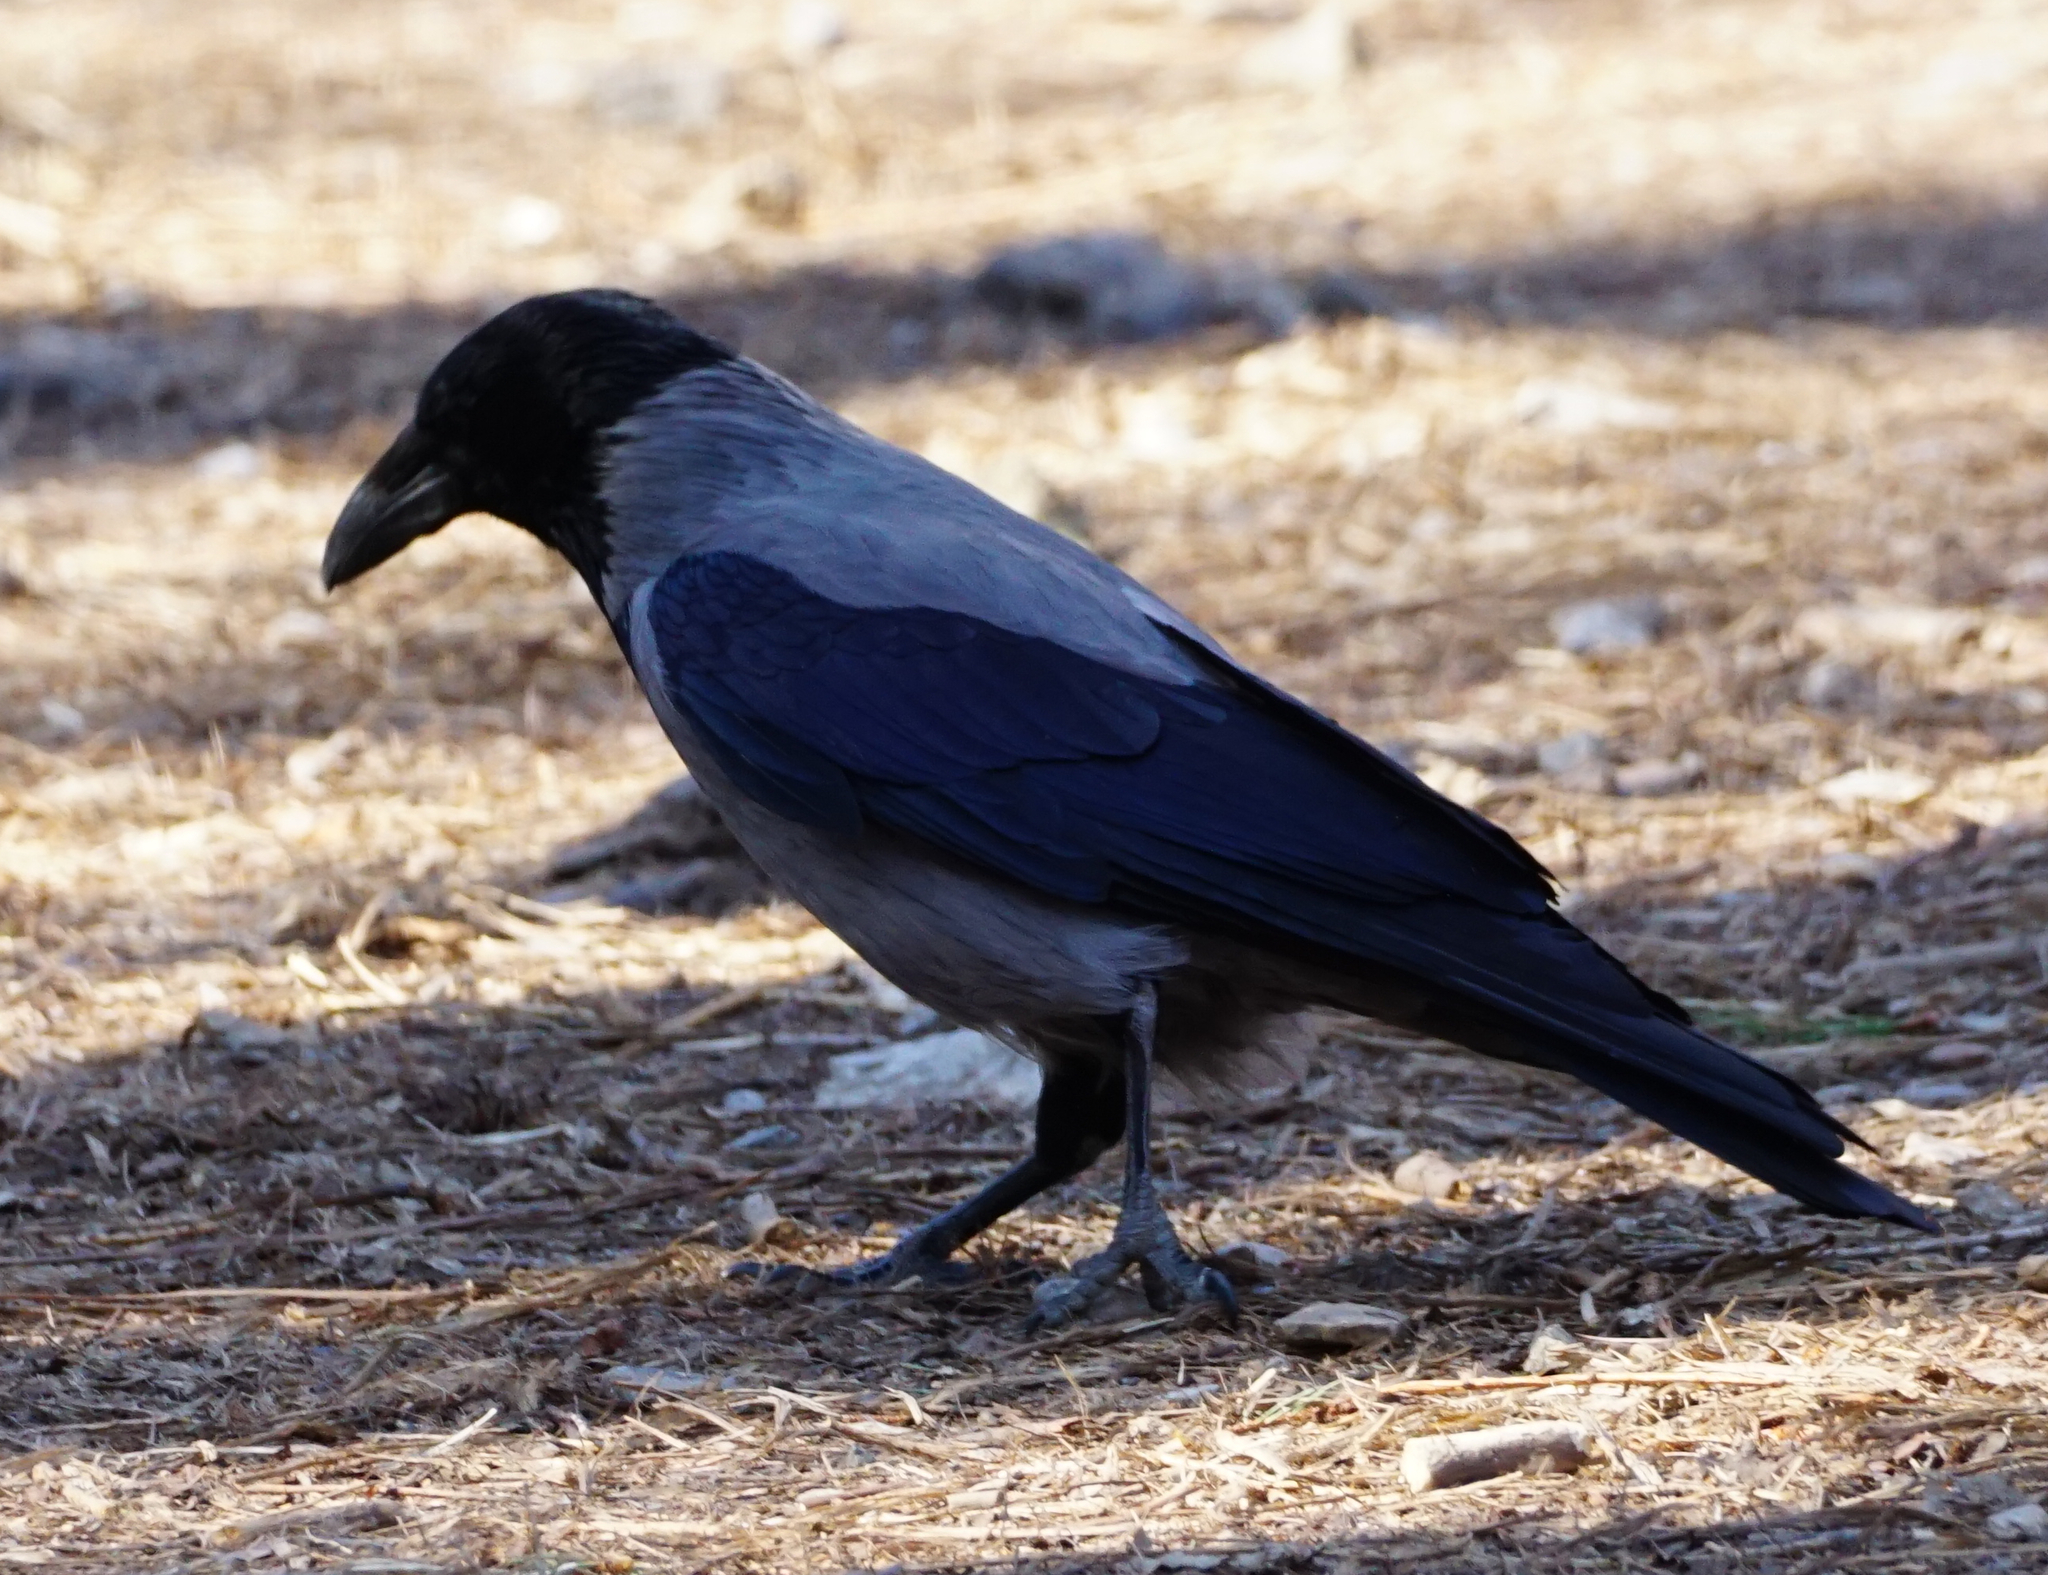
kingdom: Animalia
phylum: Chordata
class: Aves
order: Passeriformes
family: Corvidae
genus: Corvus
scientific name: Corvus cornix
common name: Hooded crow
